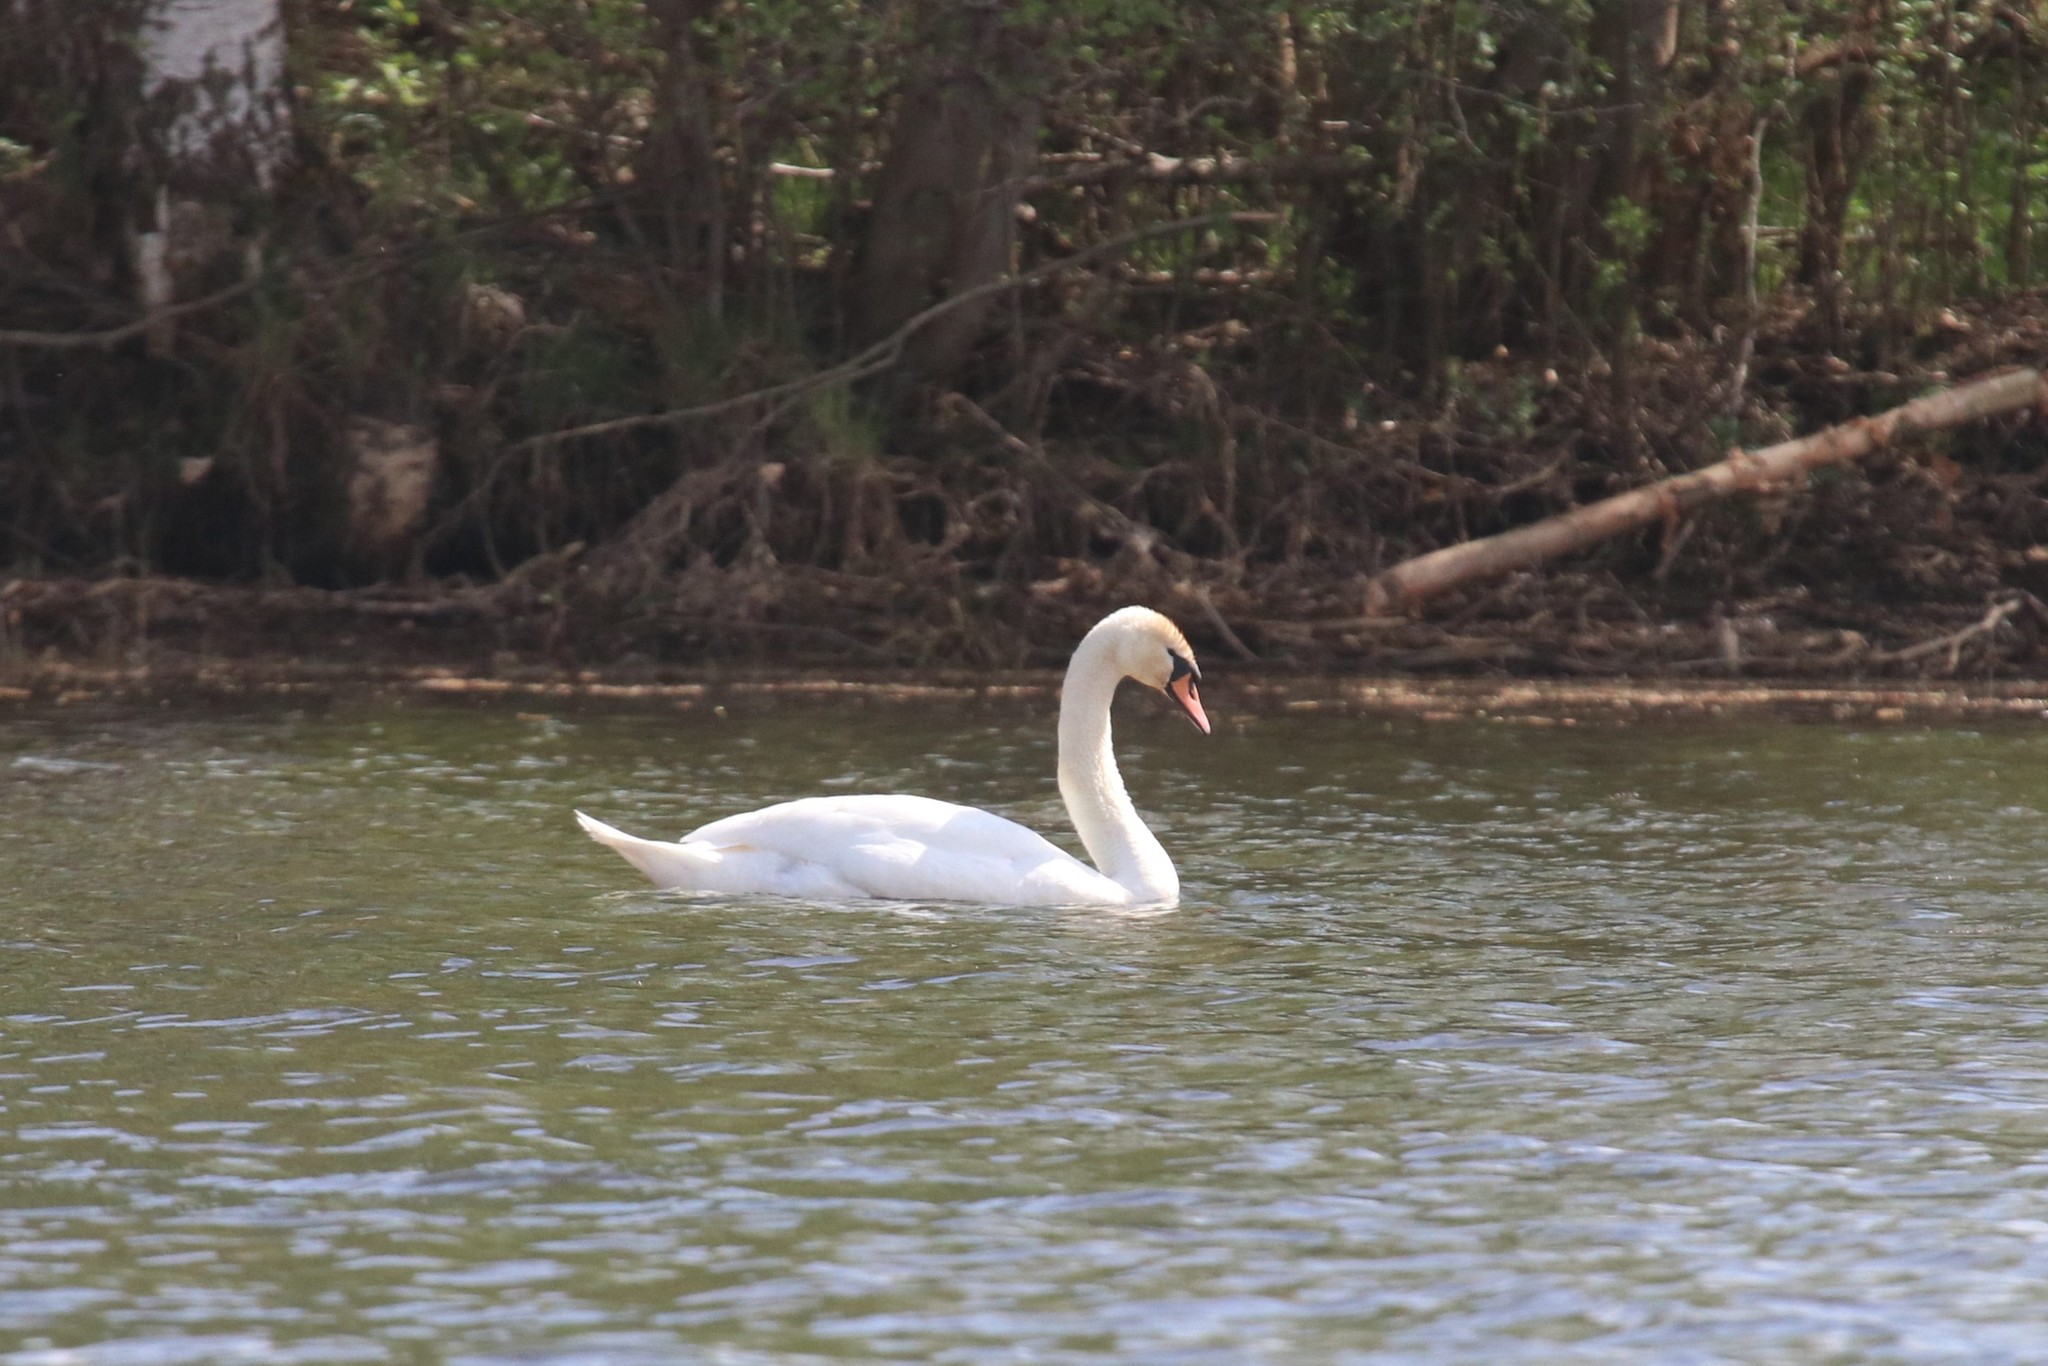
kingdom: Animalia
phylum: Chordata
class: Aves
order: Anseriformes
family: Anatidae
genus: Cygnus
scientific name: Cygnus olor
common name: Mute swan
